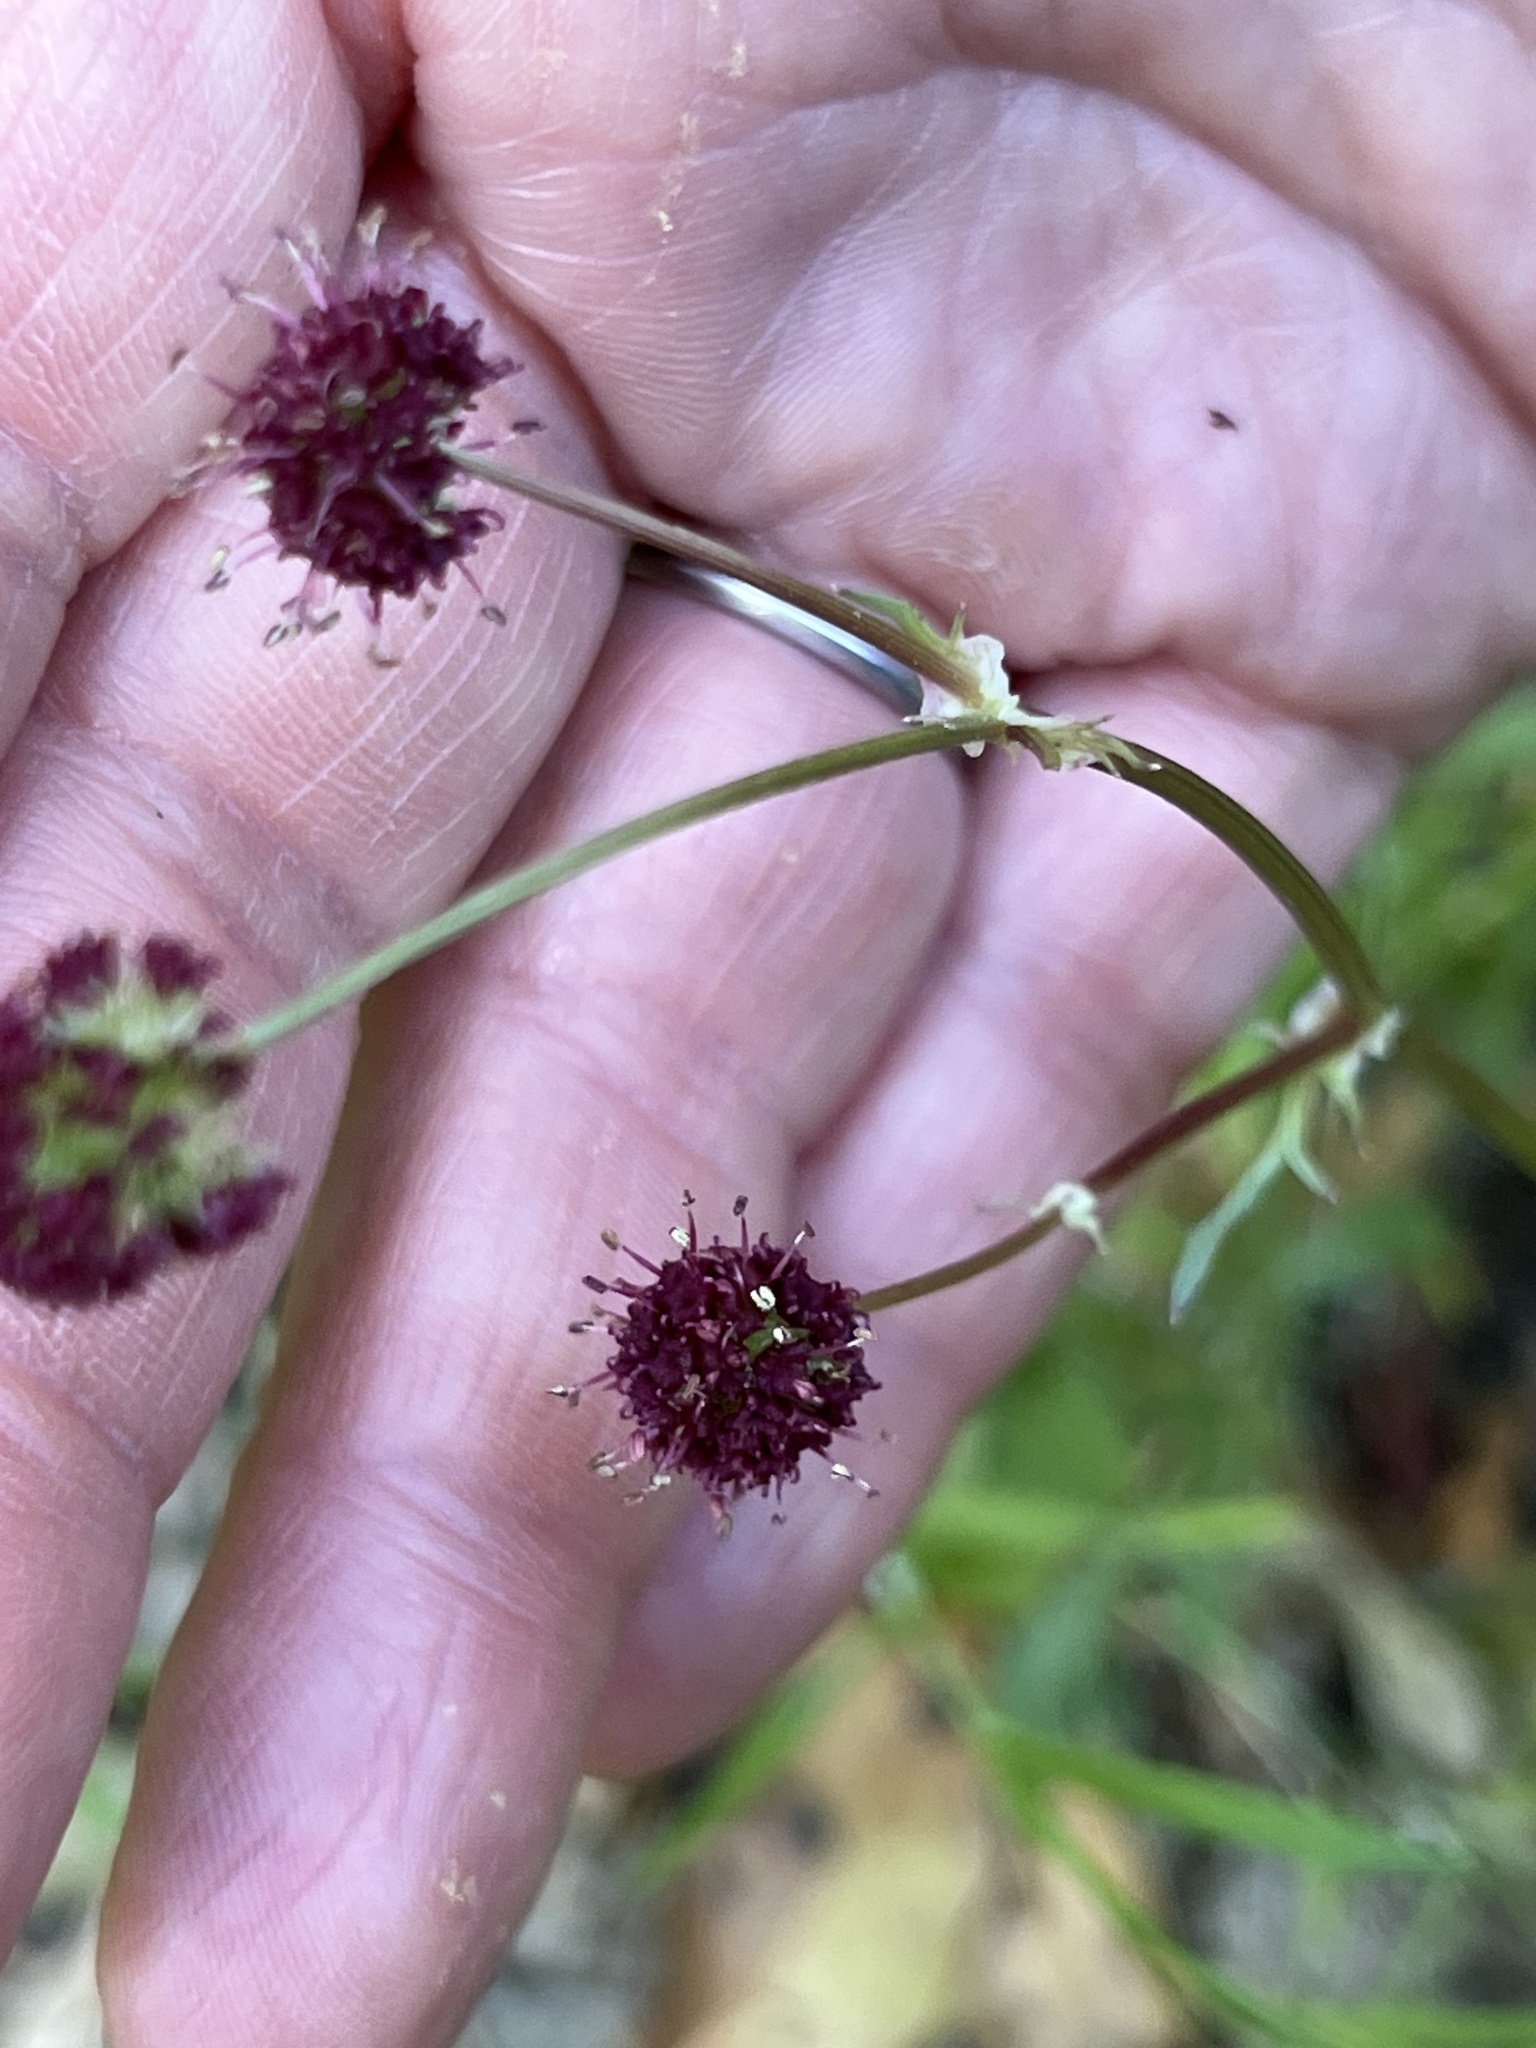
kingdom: Plantae
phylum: Tracheophyta
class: Magnoliopsida
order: Apiales
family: Apiaceae
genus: Sanicula
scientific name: Sanicula bipinnatifida
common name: Shoe-buttons
